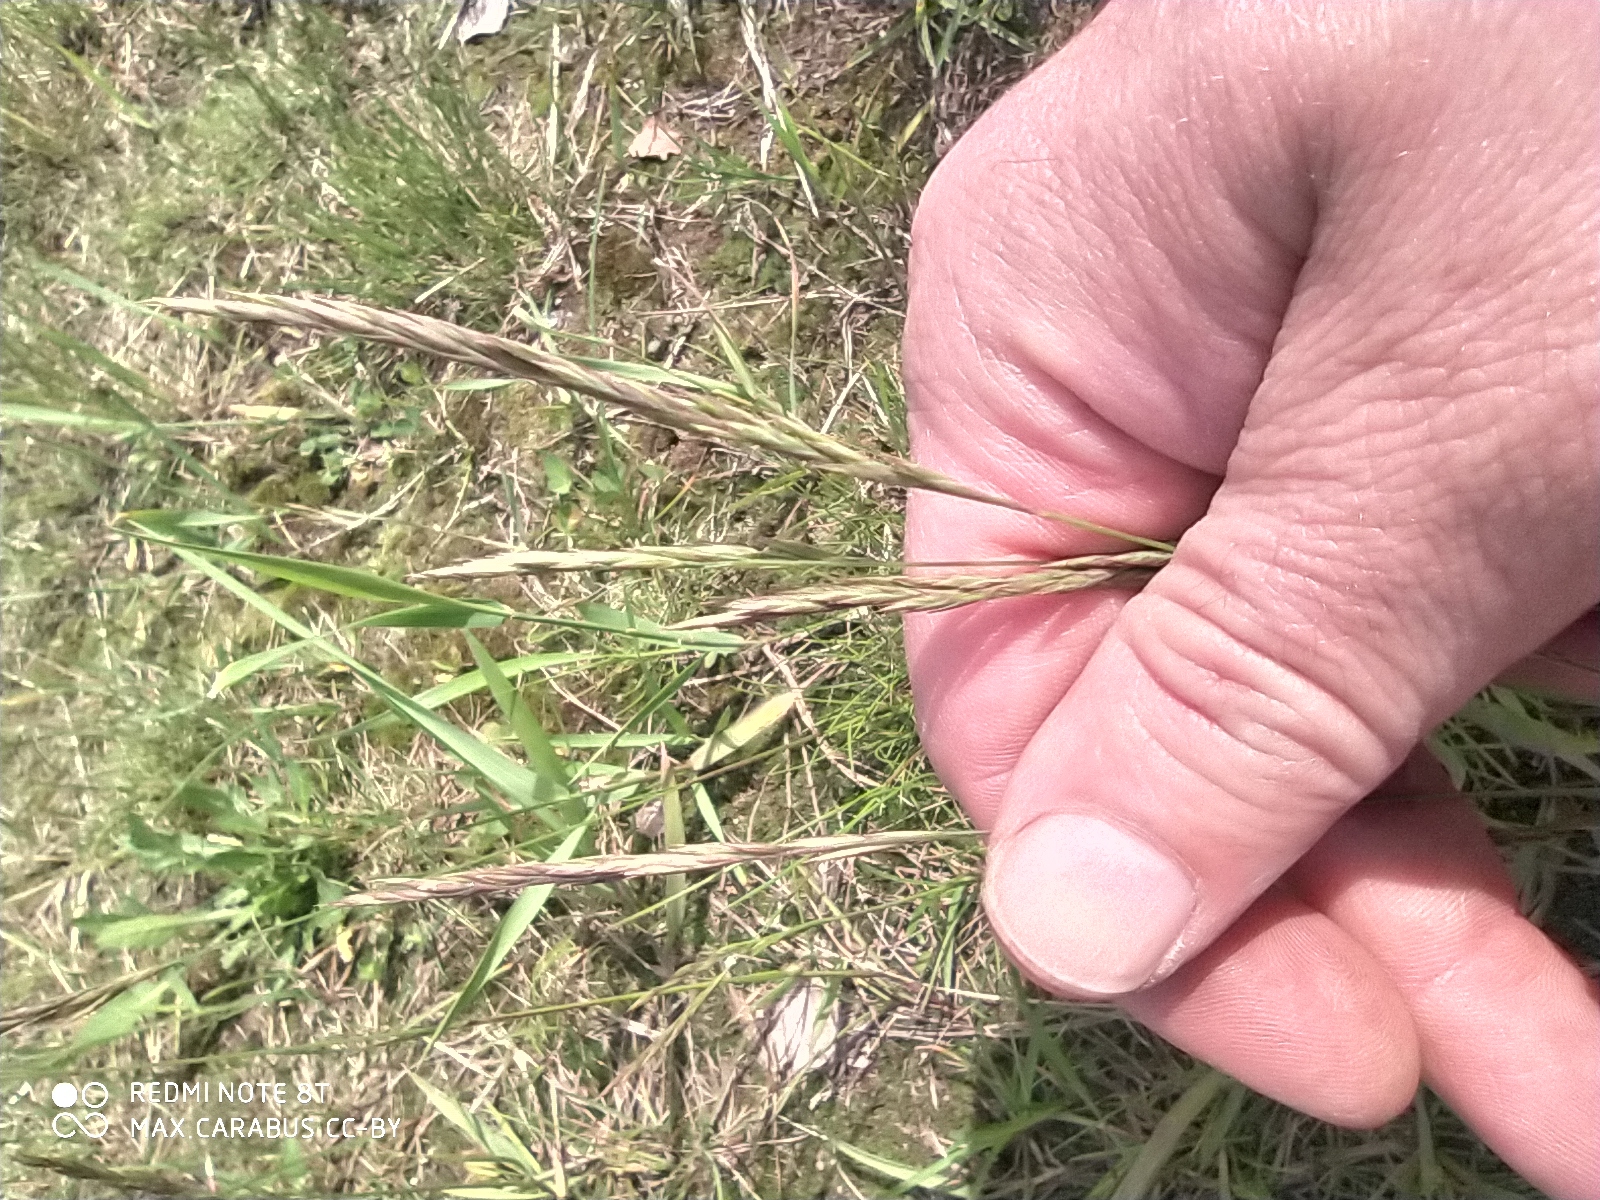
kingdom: Plantae
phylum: Tracheophyta
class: Liliopsida
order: Poales
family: Poaceae
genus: Festuca
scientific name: Festuca rubra
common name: Red fescue
